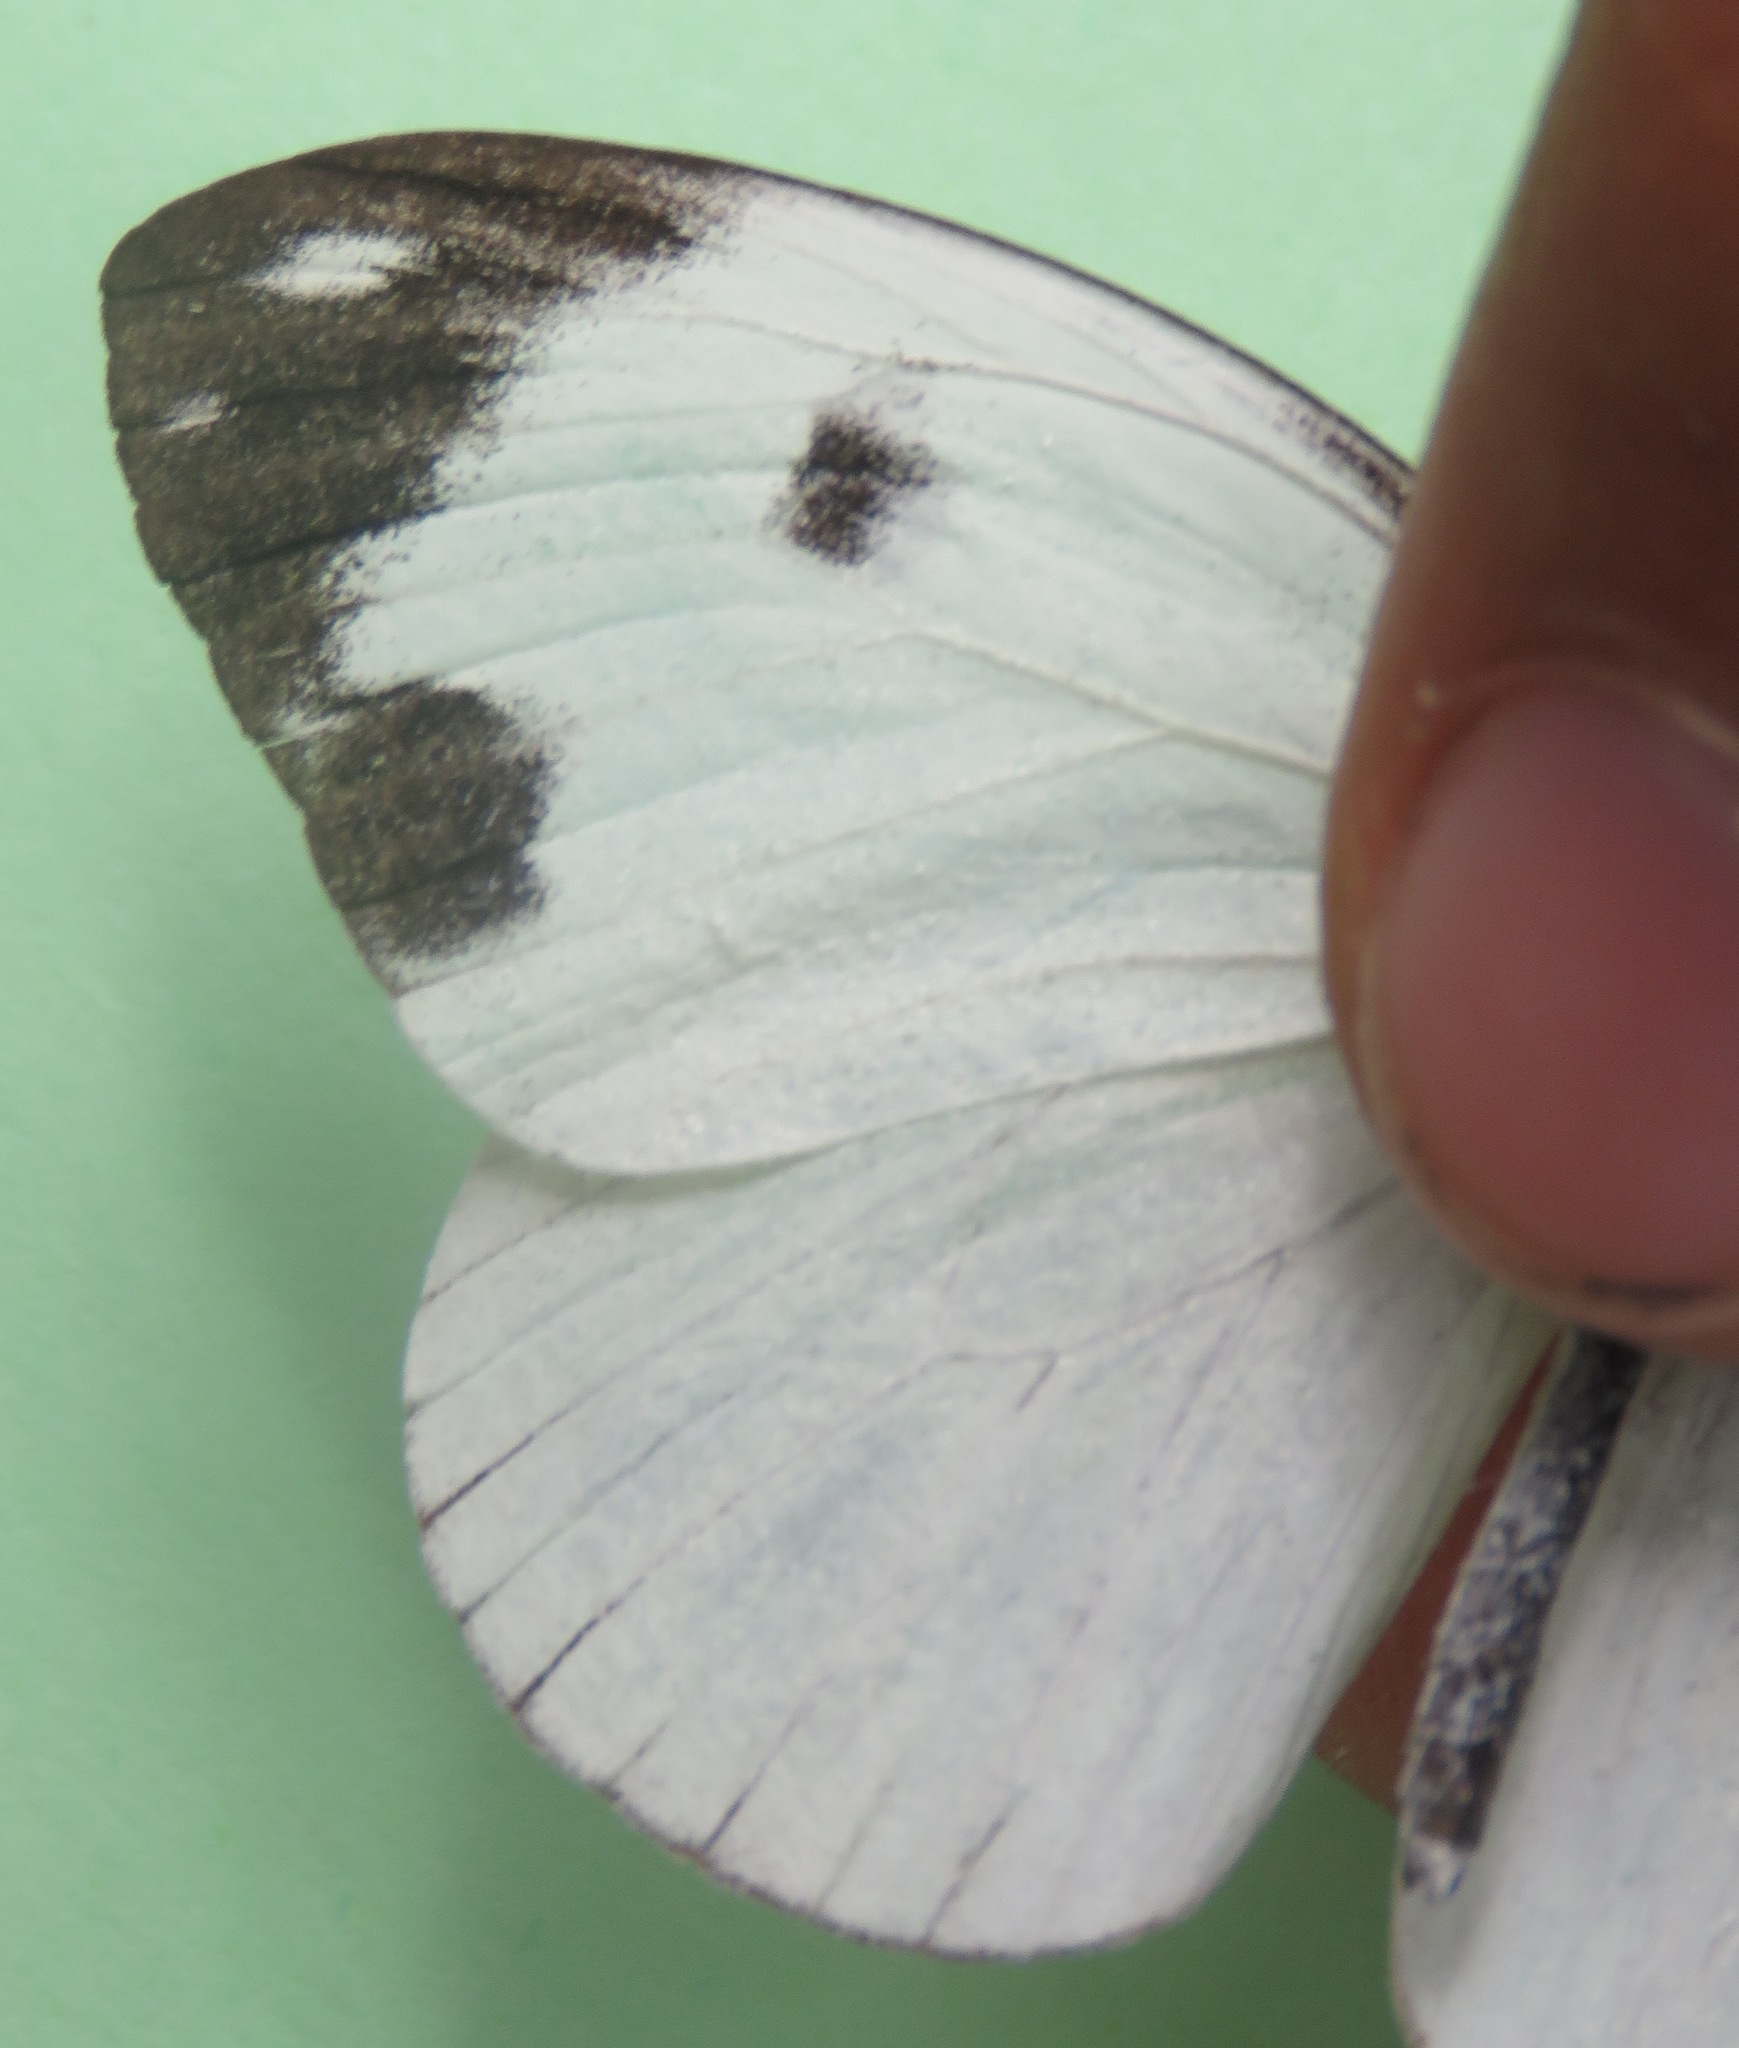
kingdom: Animalia
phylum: Arthropoda
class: Insecta
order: Lepidoptera
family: Pieridae
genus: Pieriballia
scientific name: Pieriballia viardi
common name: Painted white
